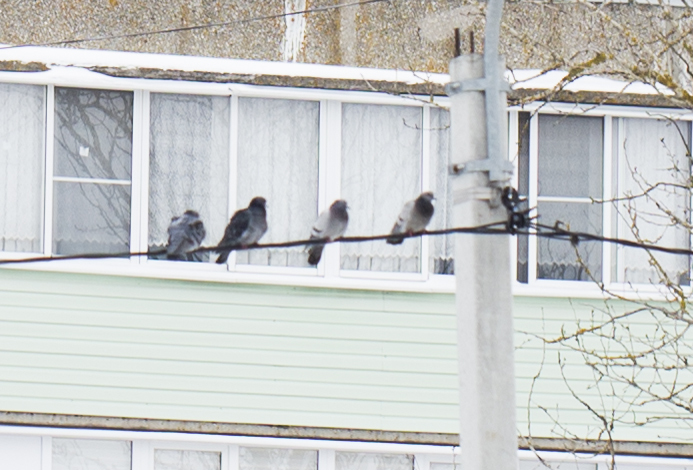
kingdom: Animalia
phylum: Chordata
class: Aves
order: Columbiformes
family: Columbidae
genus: Columba
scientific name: Columba livia
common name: Rock pigeon
